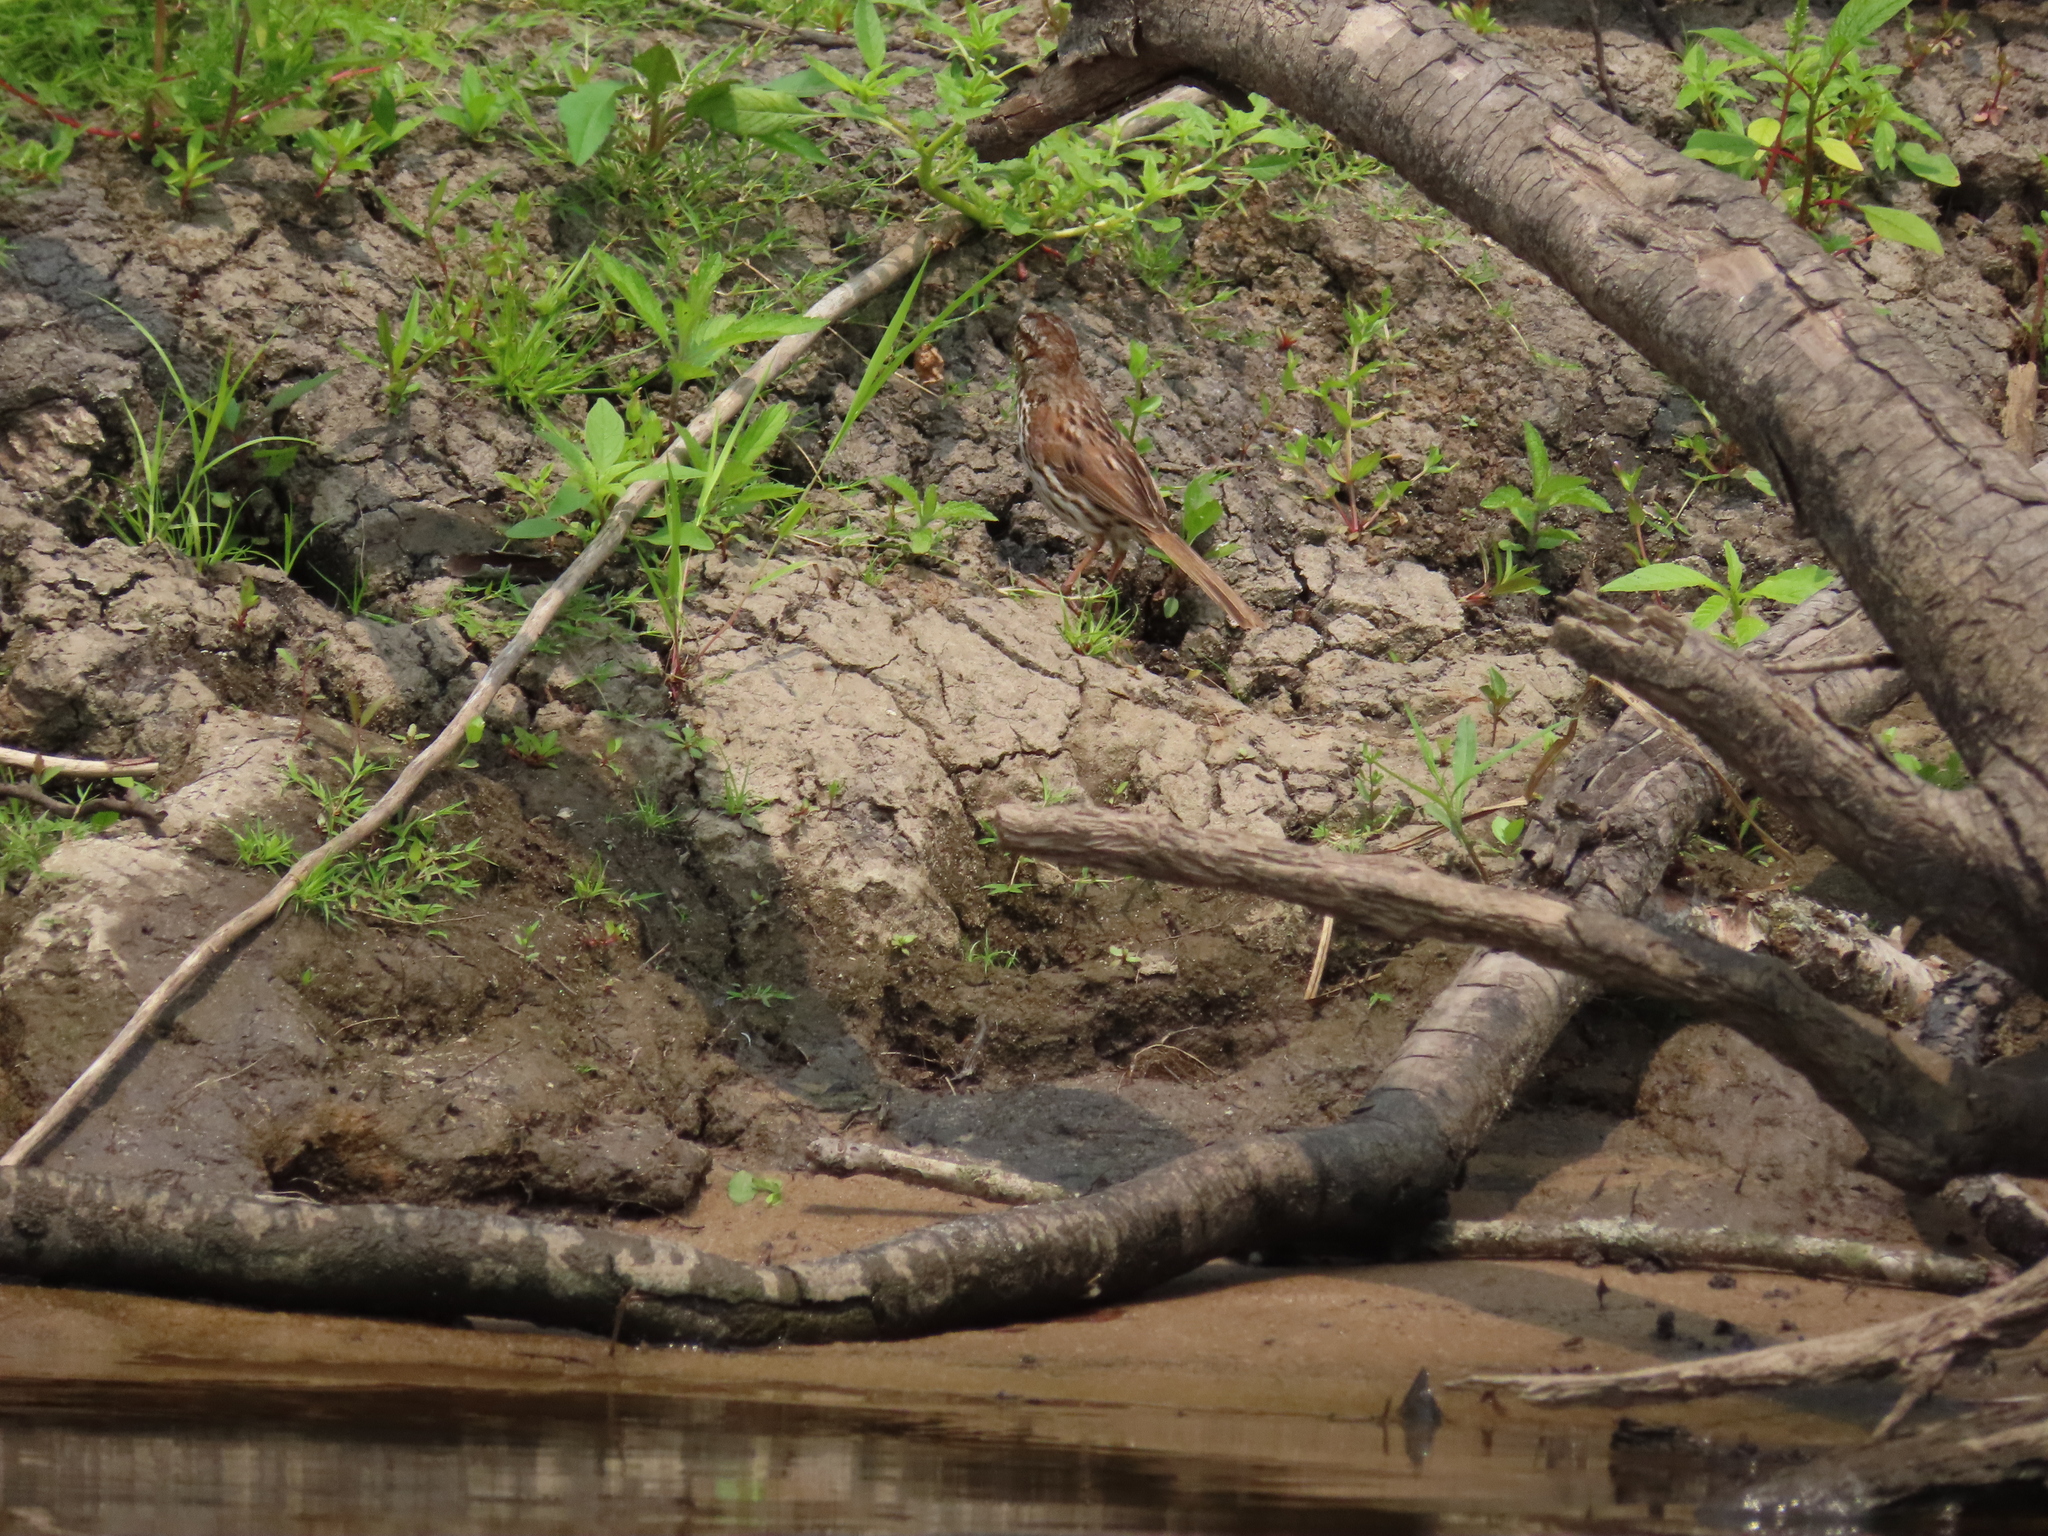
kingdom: Animalia
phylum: Chordata
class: Aves
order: Passeriformes
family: Passerellidae
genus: Melospiza
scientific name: Melospiza melodia
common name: Song sparrow
